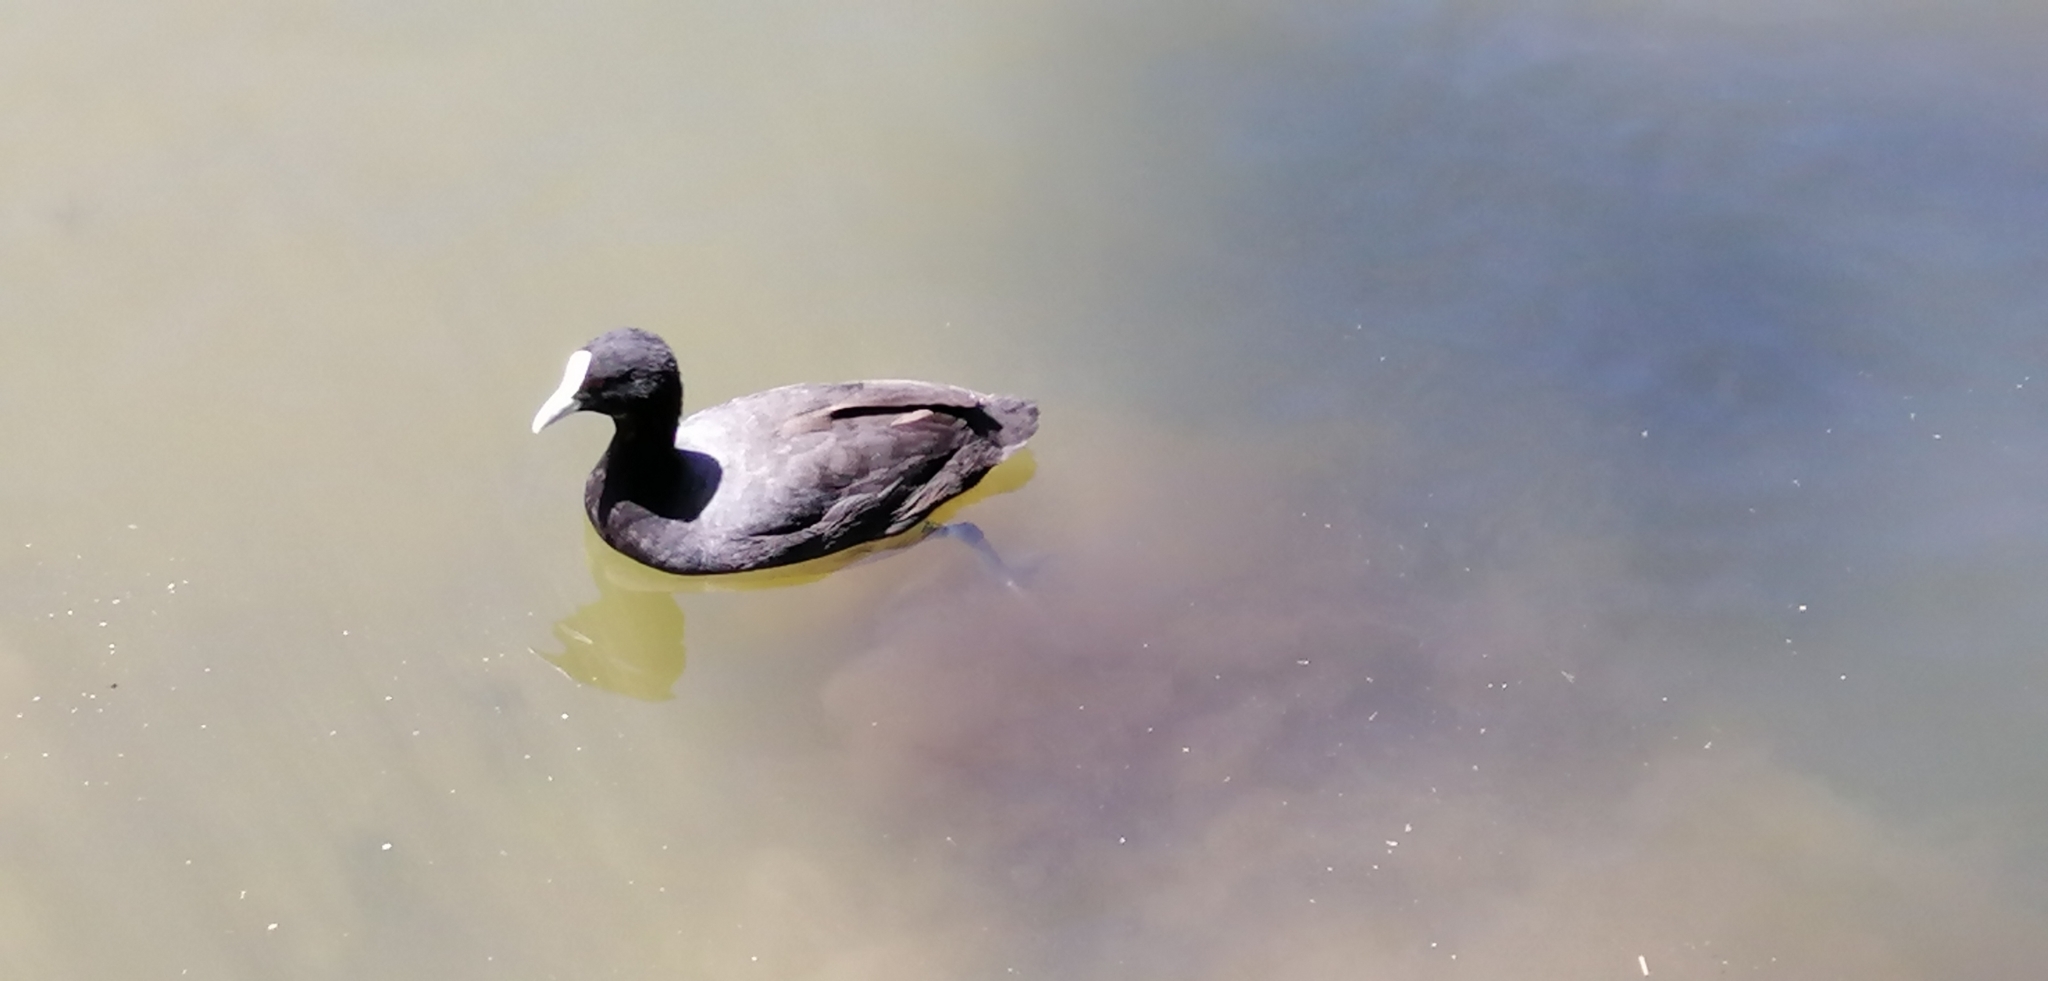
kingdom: Animalia
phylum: Chordata
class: Aves
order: Gruiformes
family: Rallidae
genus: Fulica
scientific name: Fulica atra
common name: Eurasian coot
